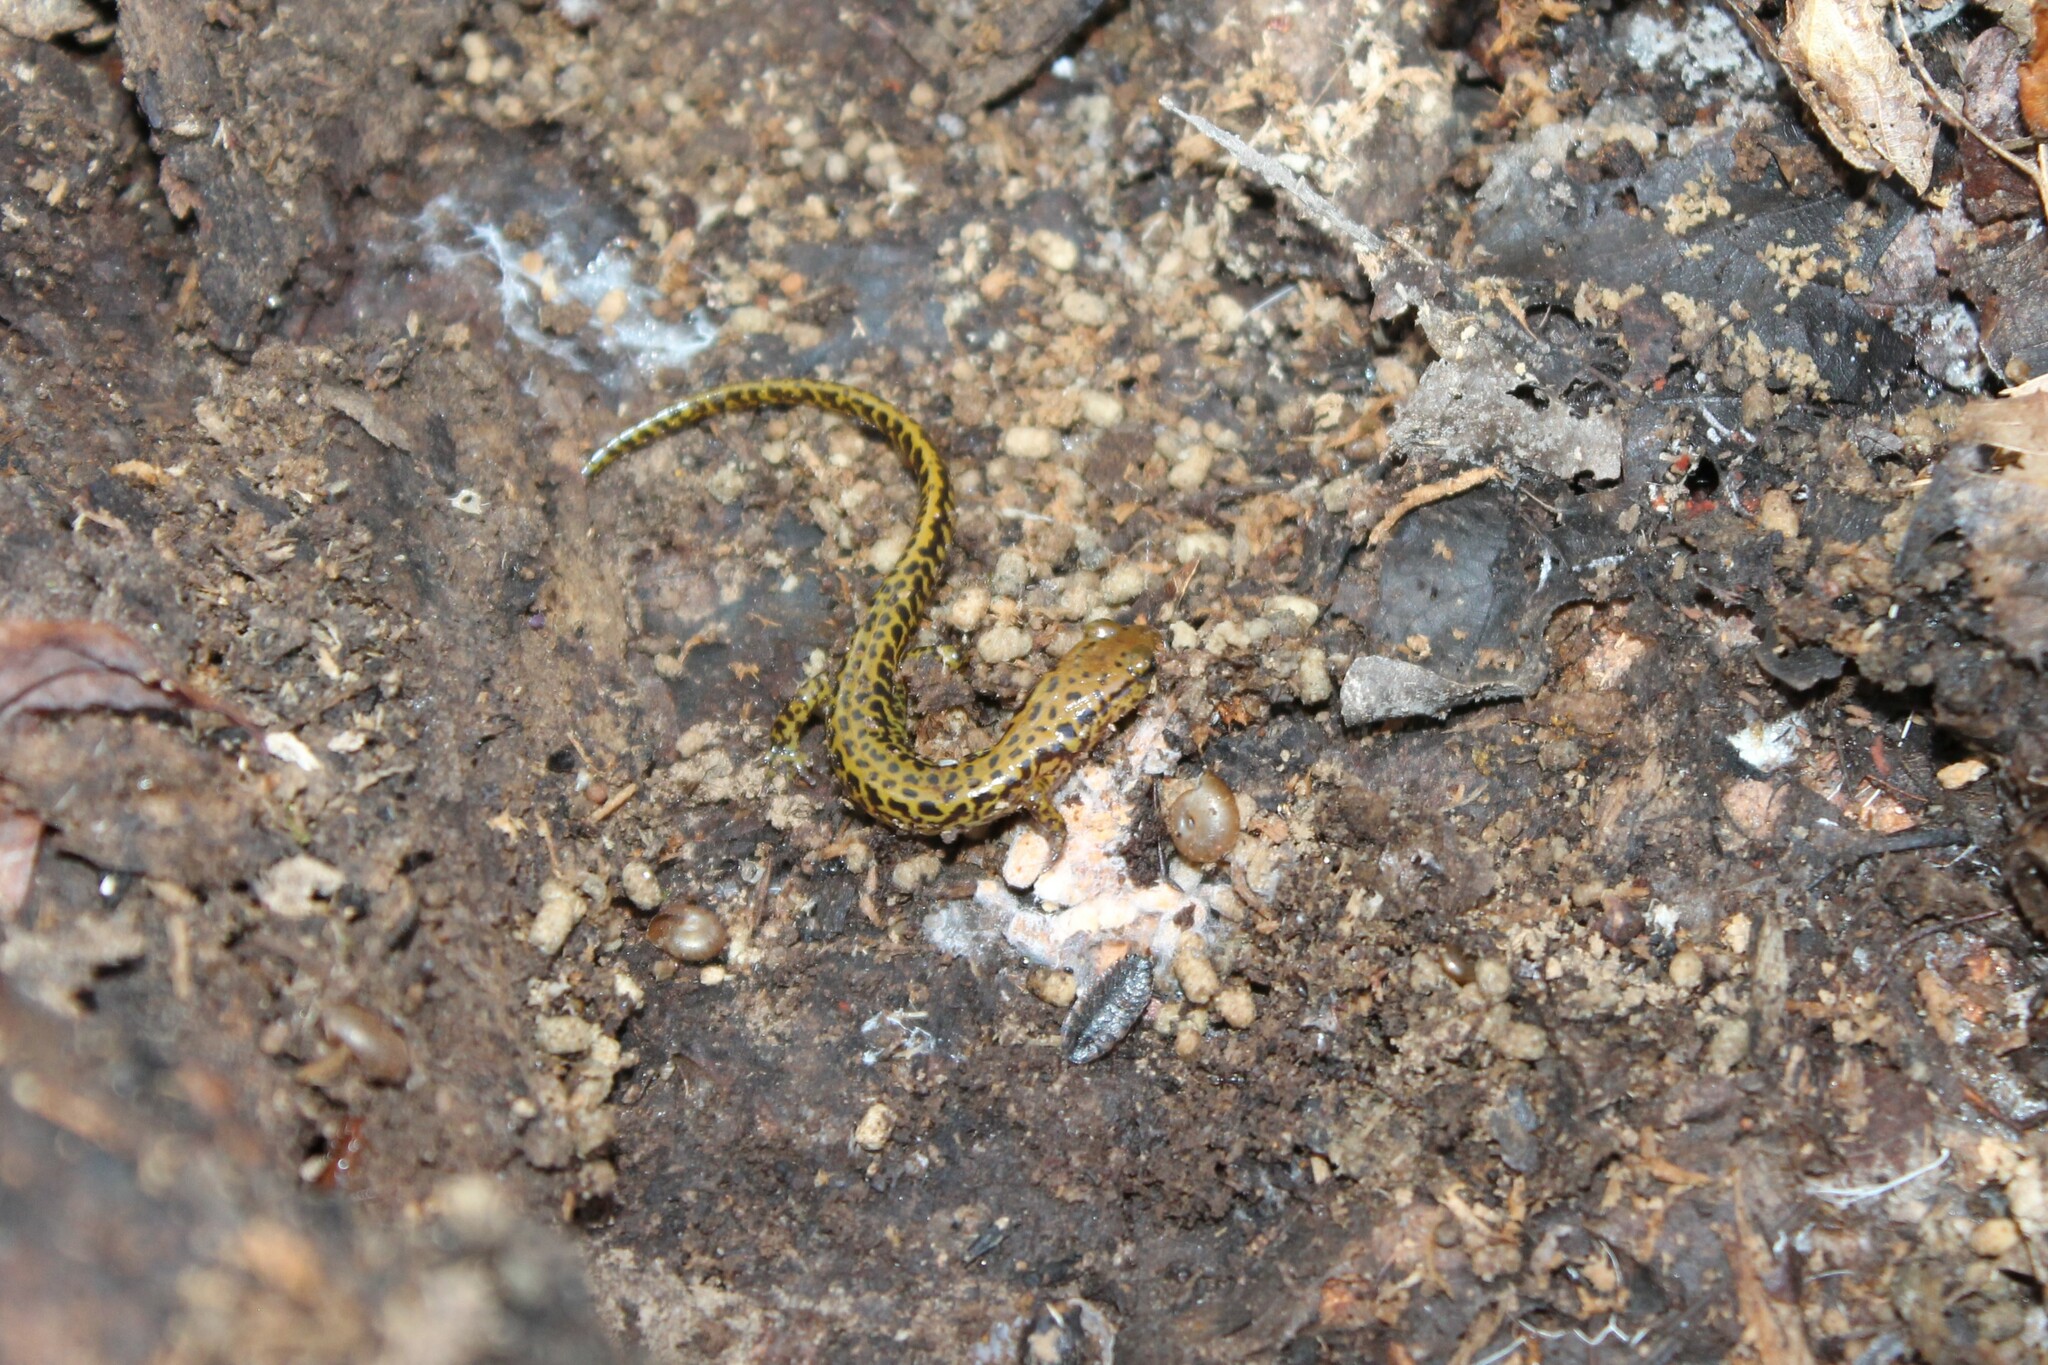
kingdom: Animalia
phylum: Chordata
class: Amphibia
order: Caudata
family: Plethodontidae
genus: Eurycea
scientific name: Eurycea longicauda
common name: Long-tailed salamander
